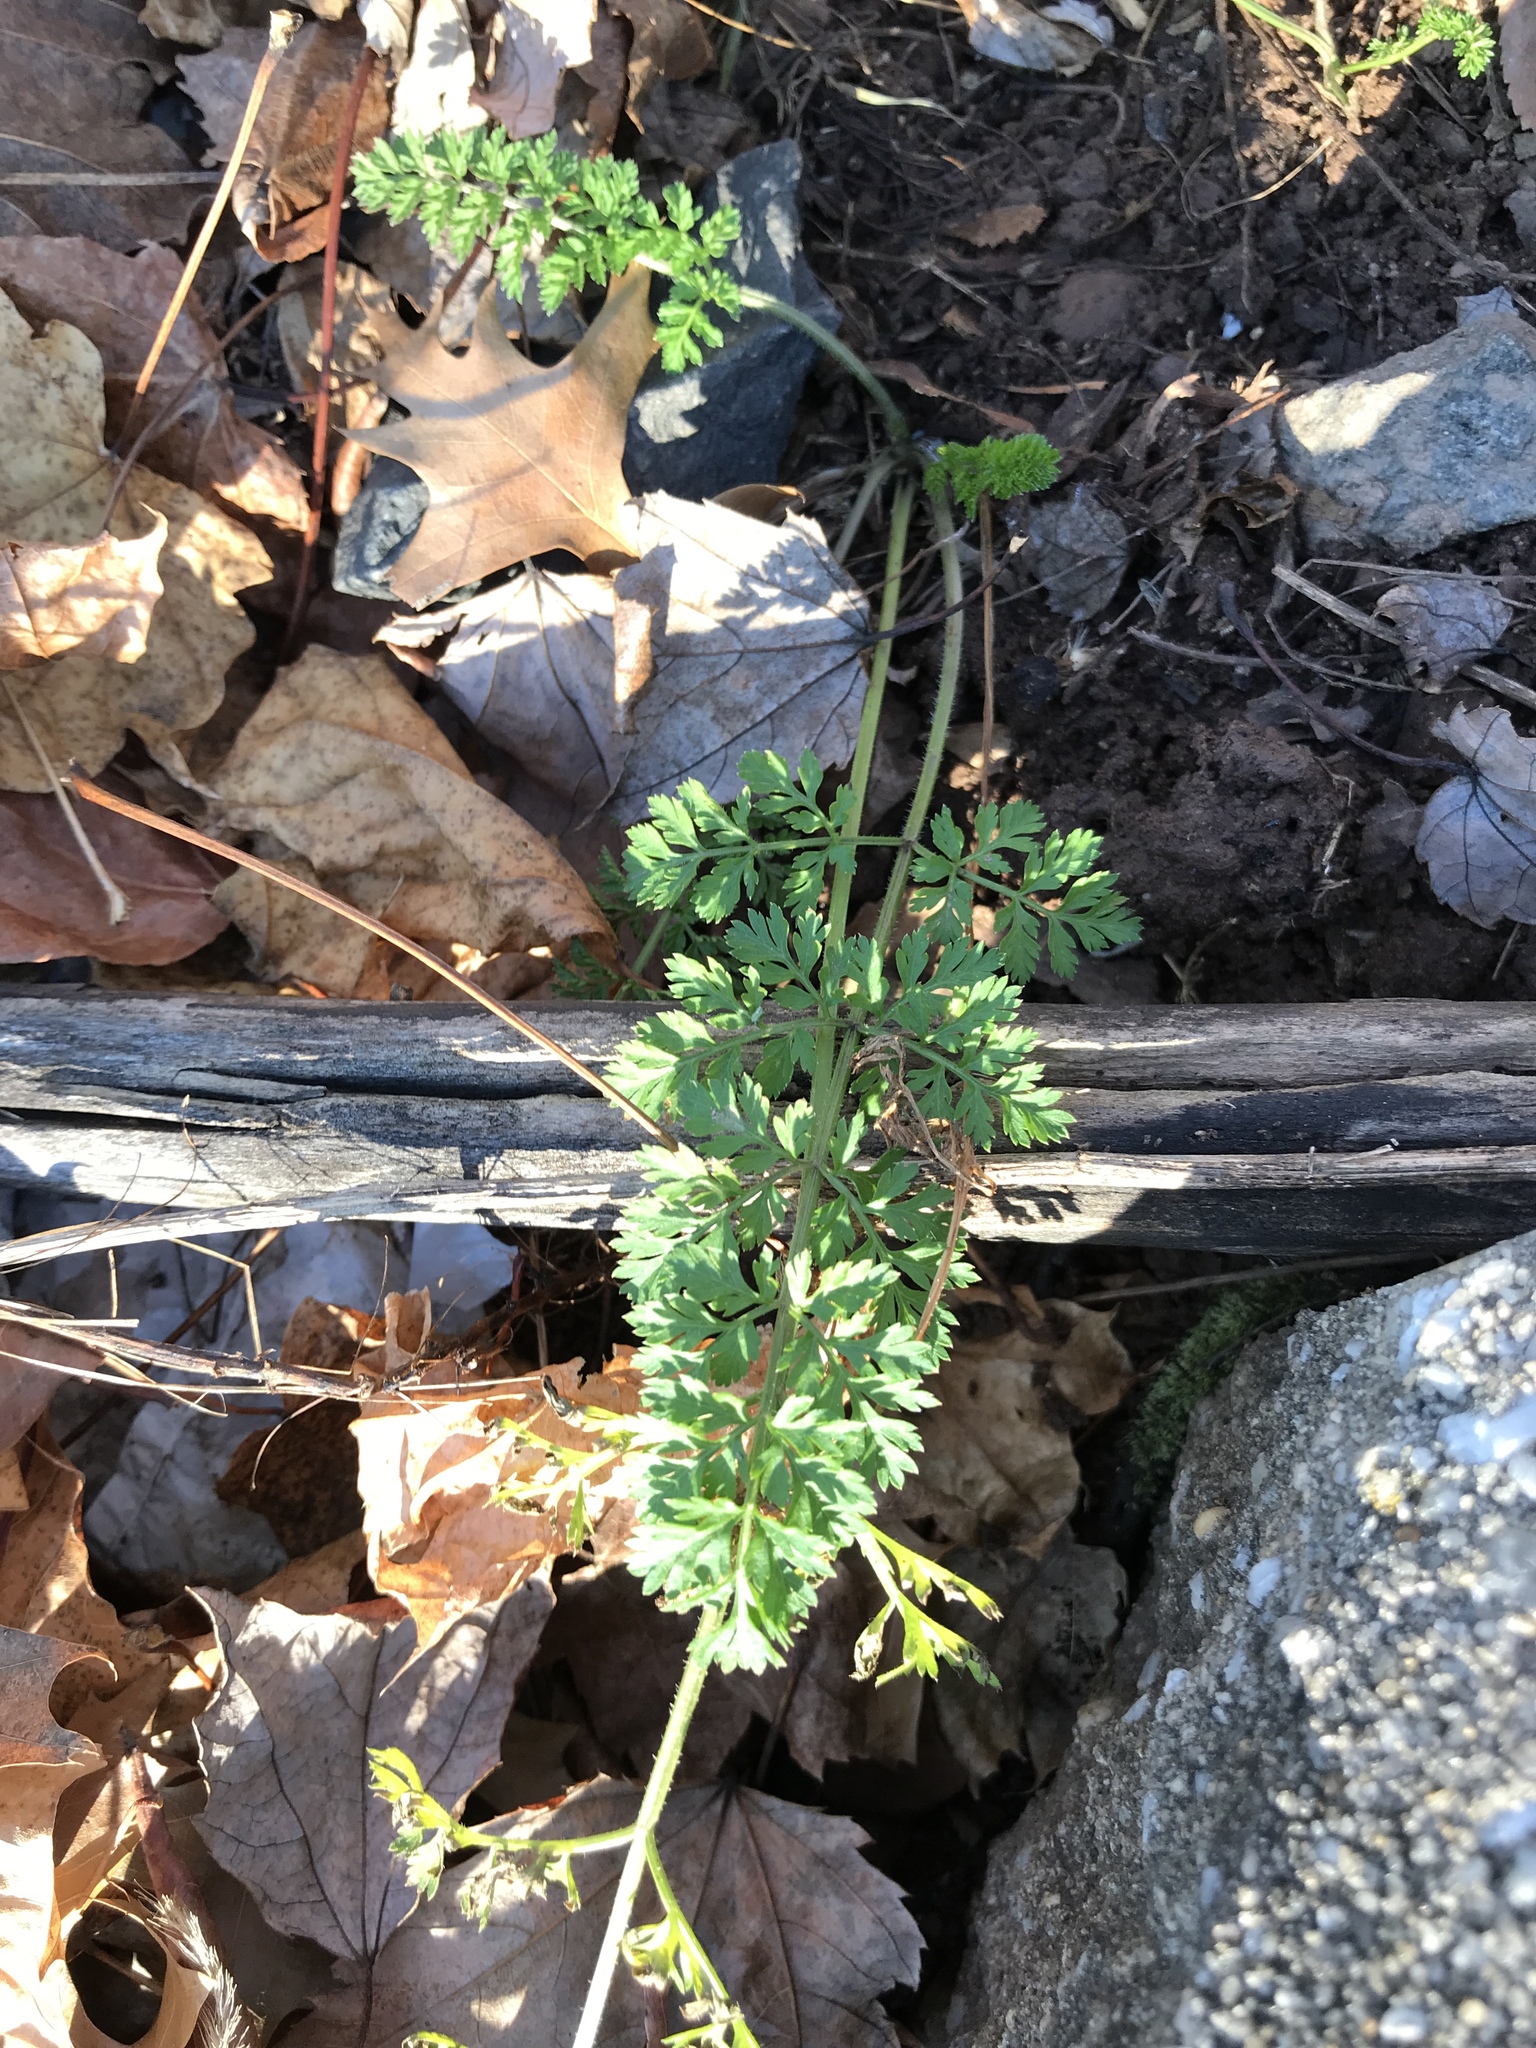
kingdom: Plantae
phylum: Tracheophyta
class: Magnoliopsida
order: Apiales
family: Apiaceae
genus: Daucus
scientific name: Daucus carota
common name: Wild carrot
